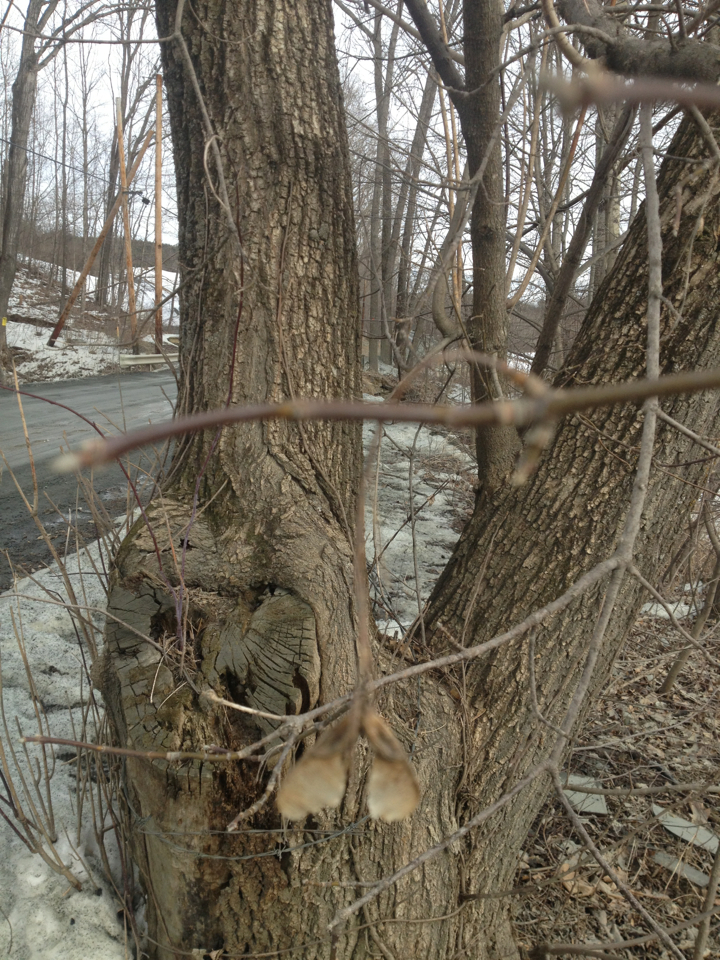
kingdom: Plantae
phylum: Tracheophyta
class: Magnoliopsida
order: Sapindales
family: Sapindaceae
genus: Acer
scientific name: Acer negundo
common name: Ashleaf maple
